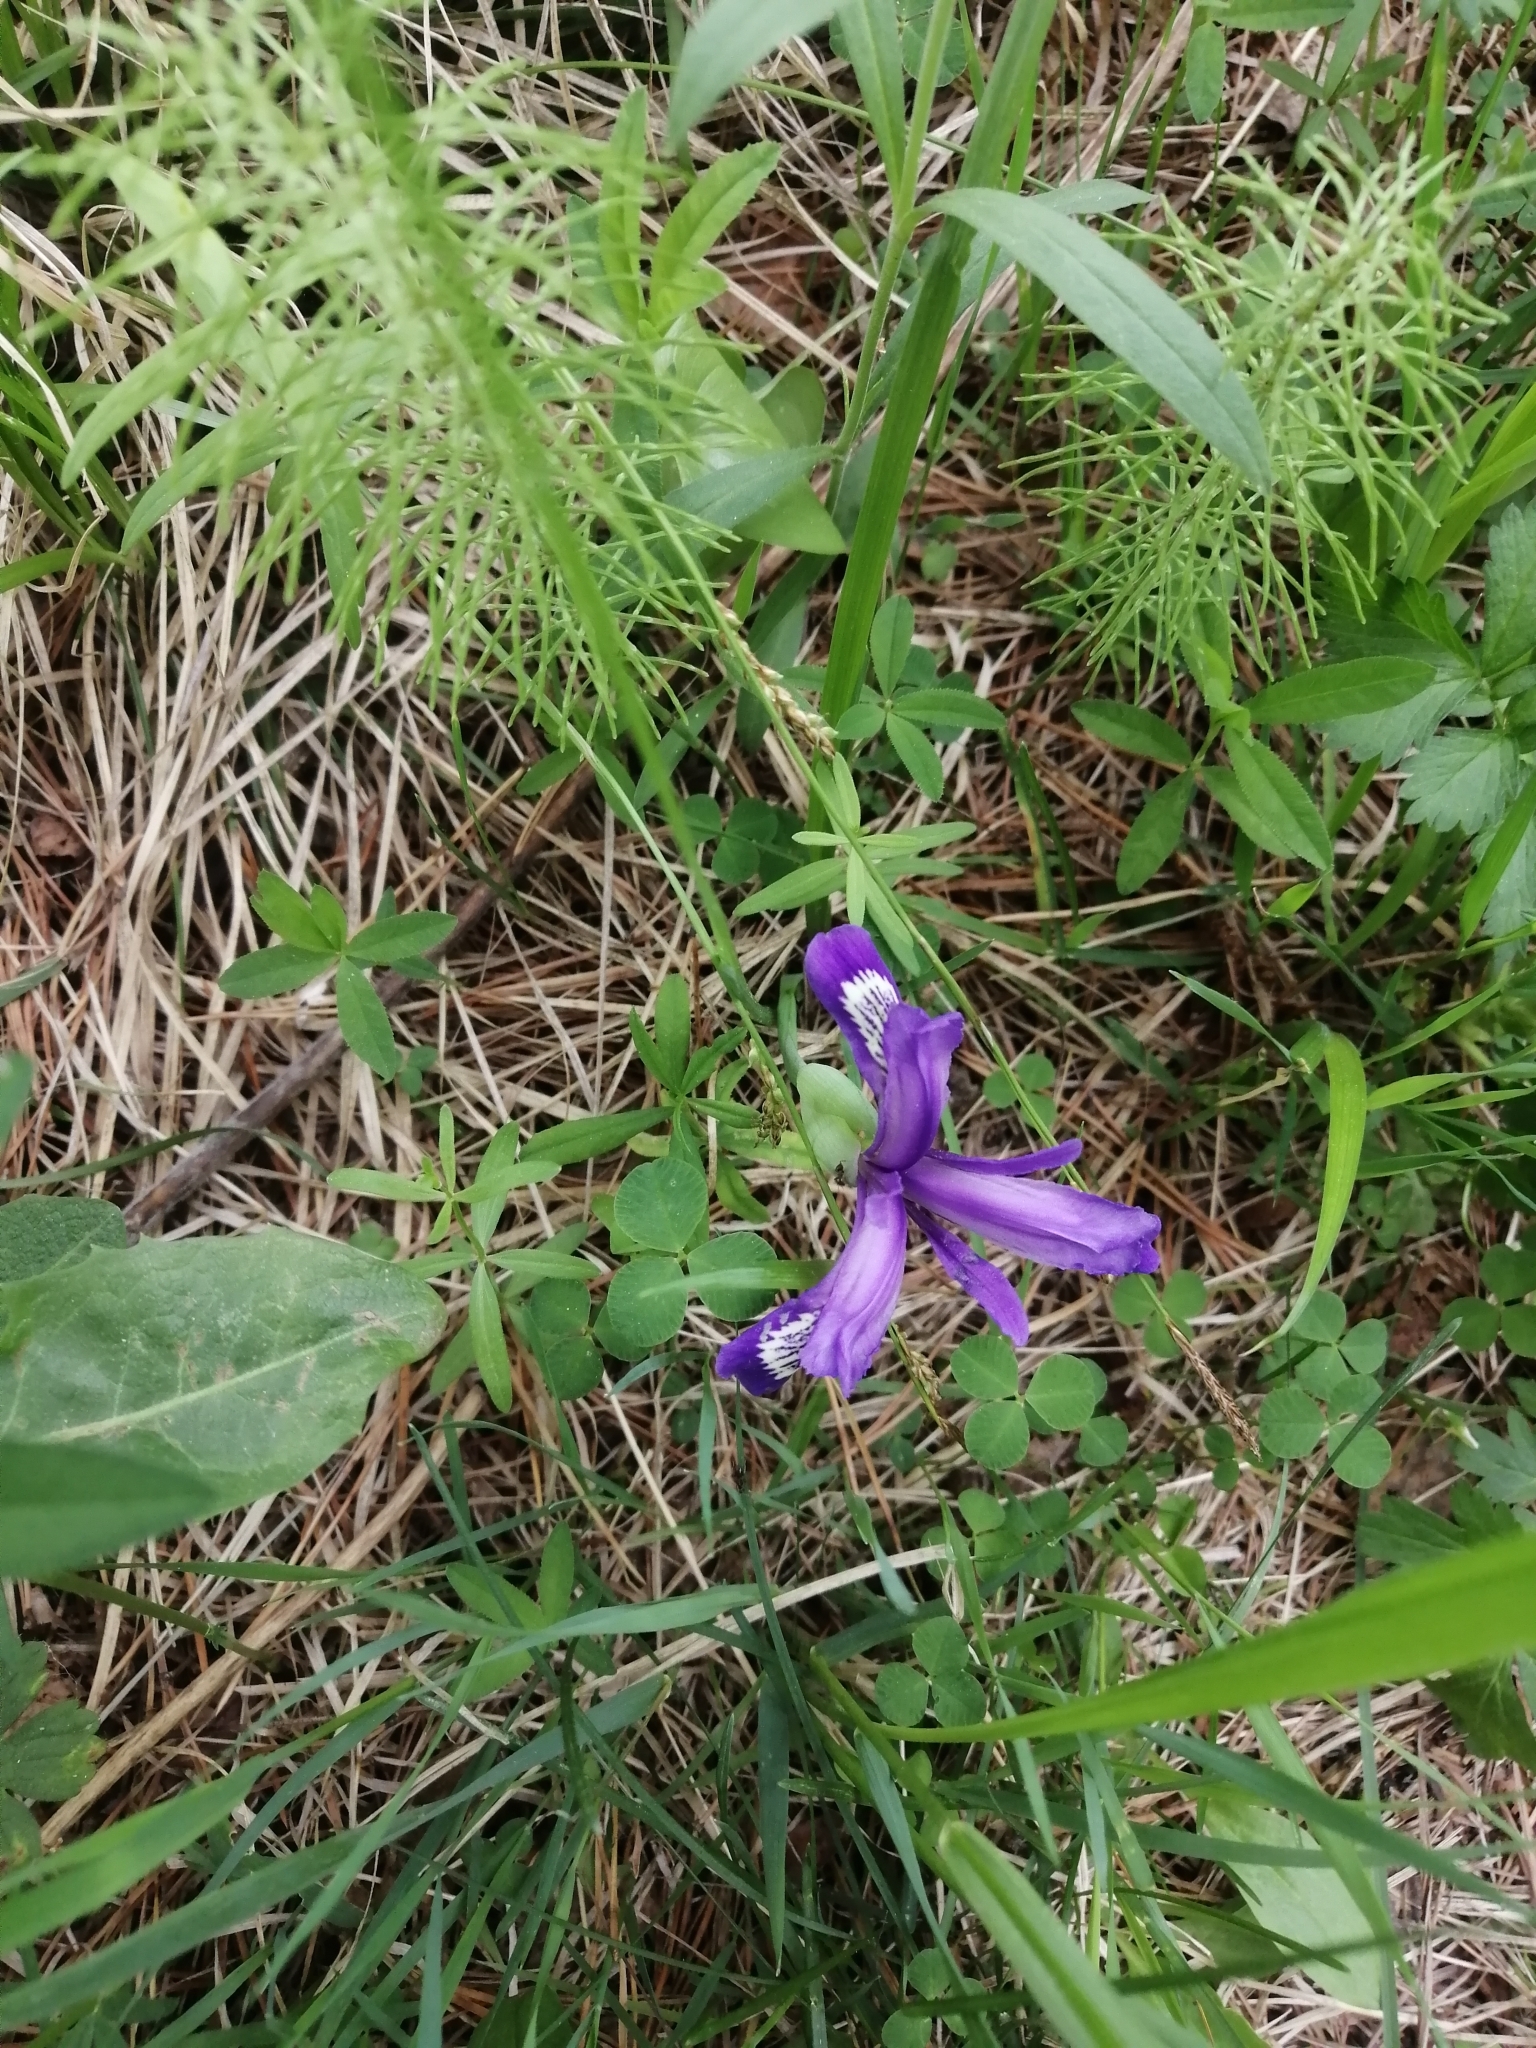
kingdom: Plantae
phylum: Tracheophyta
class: Liliopsida
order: Asparagales
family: Iridaceae
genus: Iris
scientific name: Iris ruthenica
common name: Purple-bract iris
